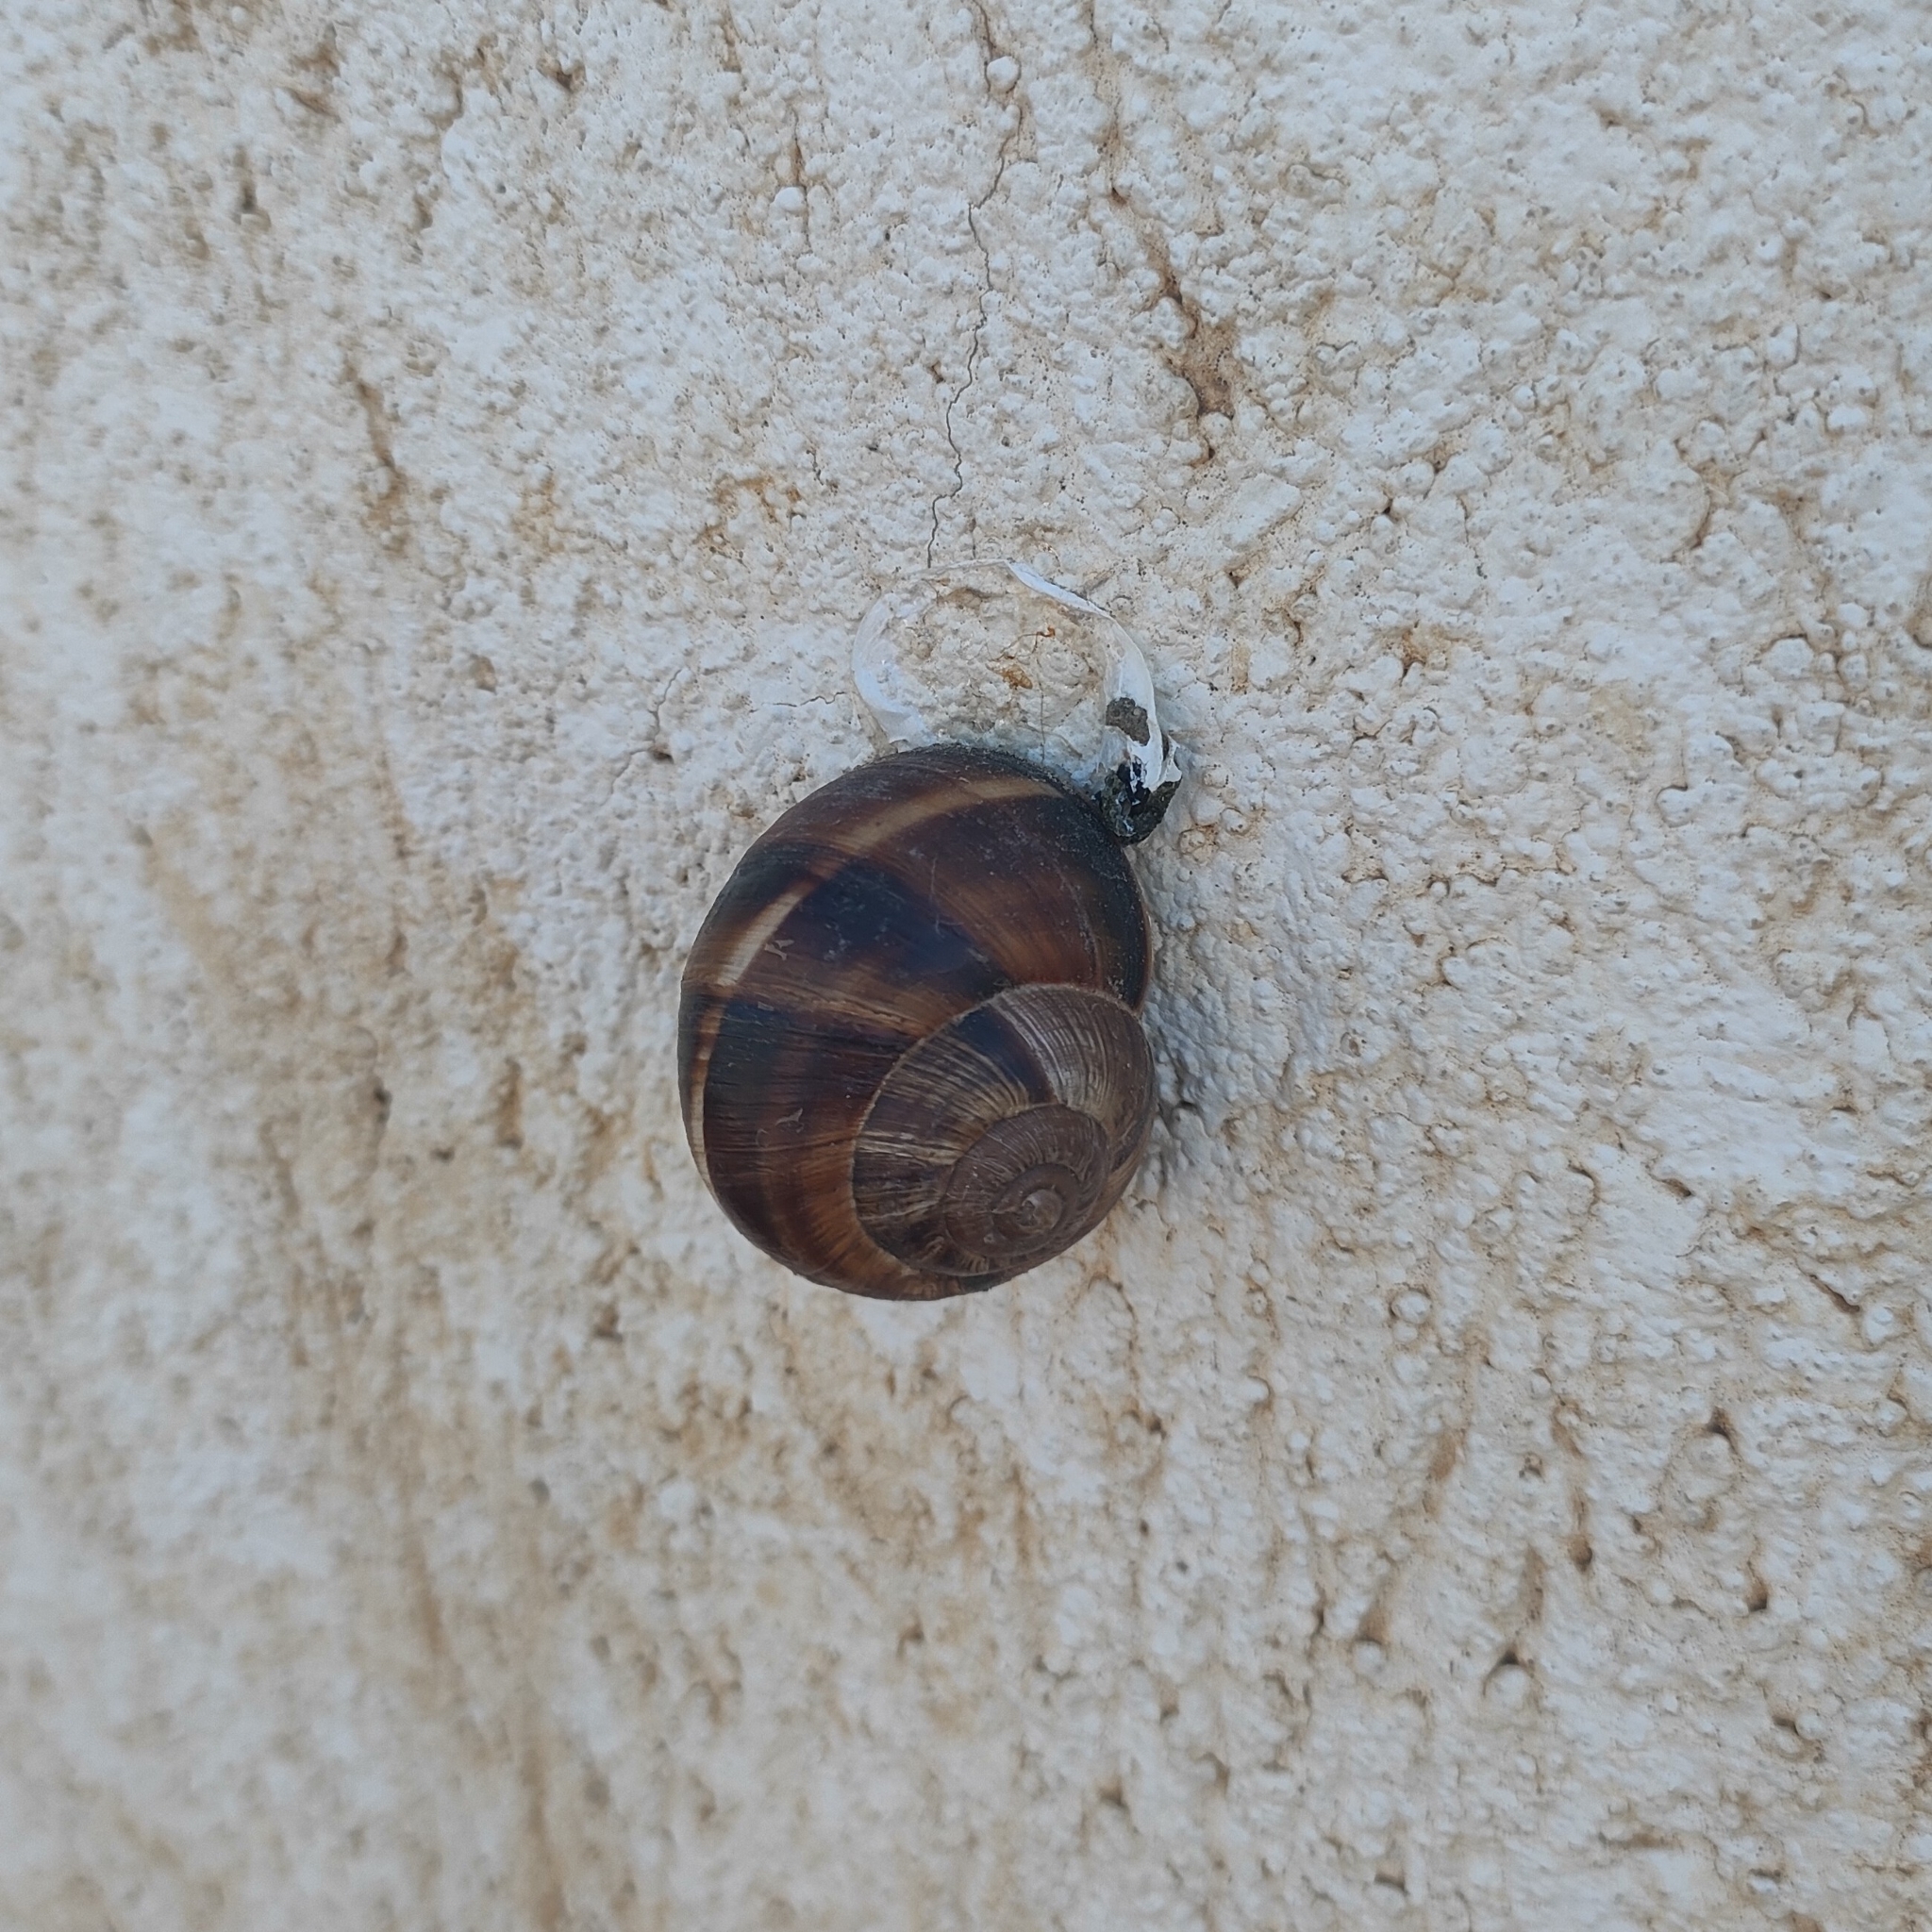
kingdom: Animalia
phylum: Mollusca
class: Gastropoda
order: Stylommatophora
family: Helicidae
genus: Helix
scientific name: Helix lucorum
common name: Turkish snail
